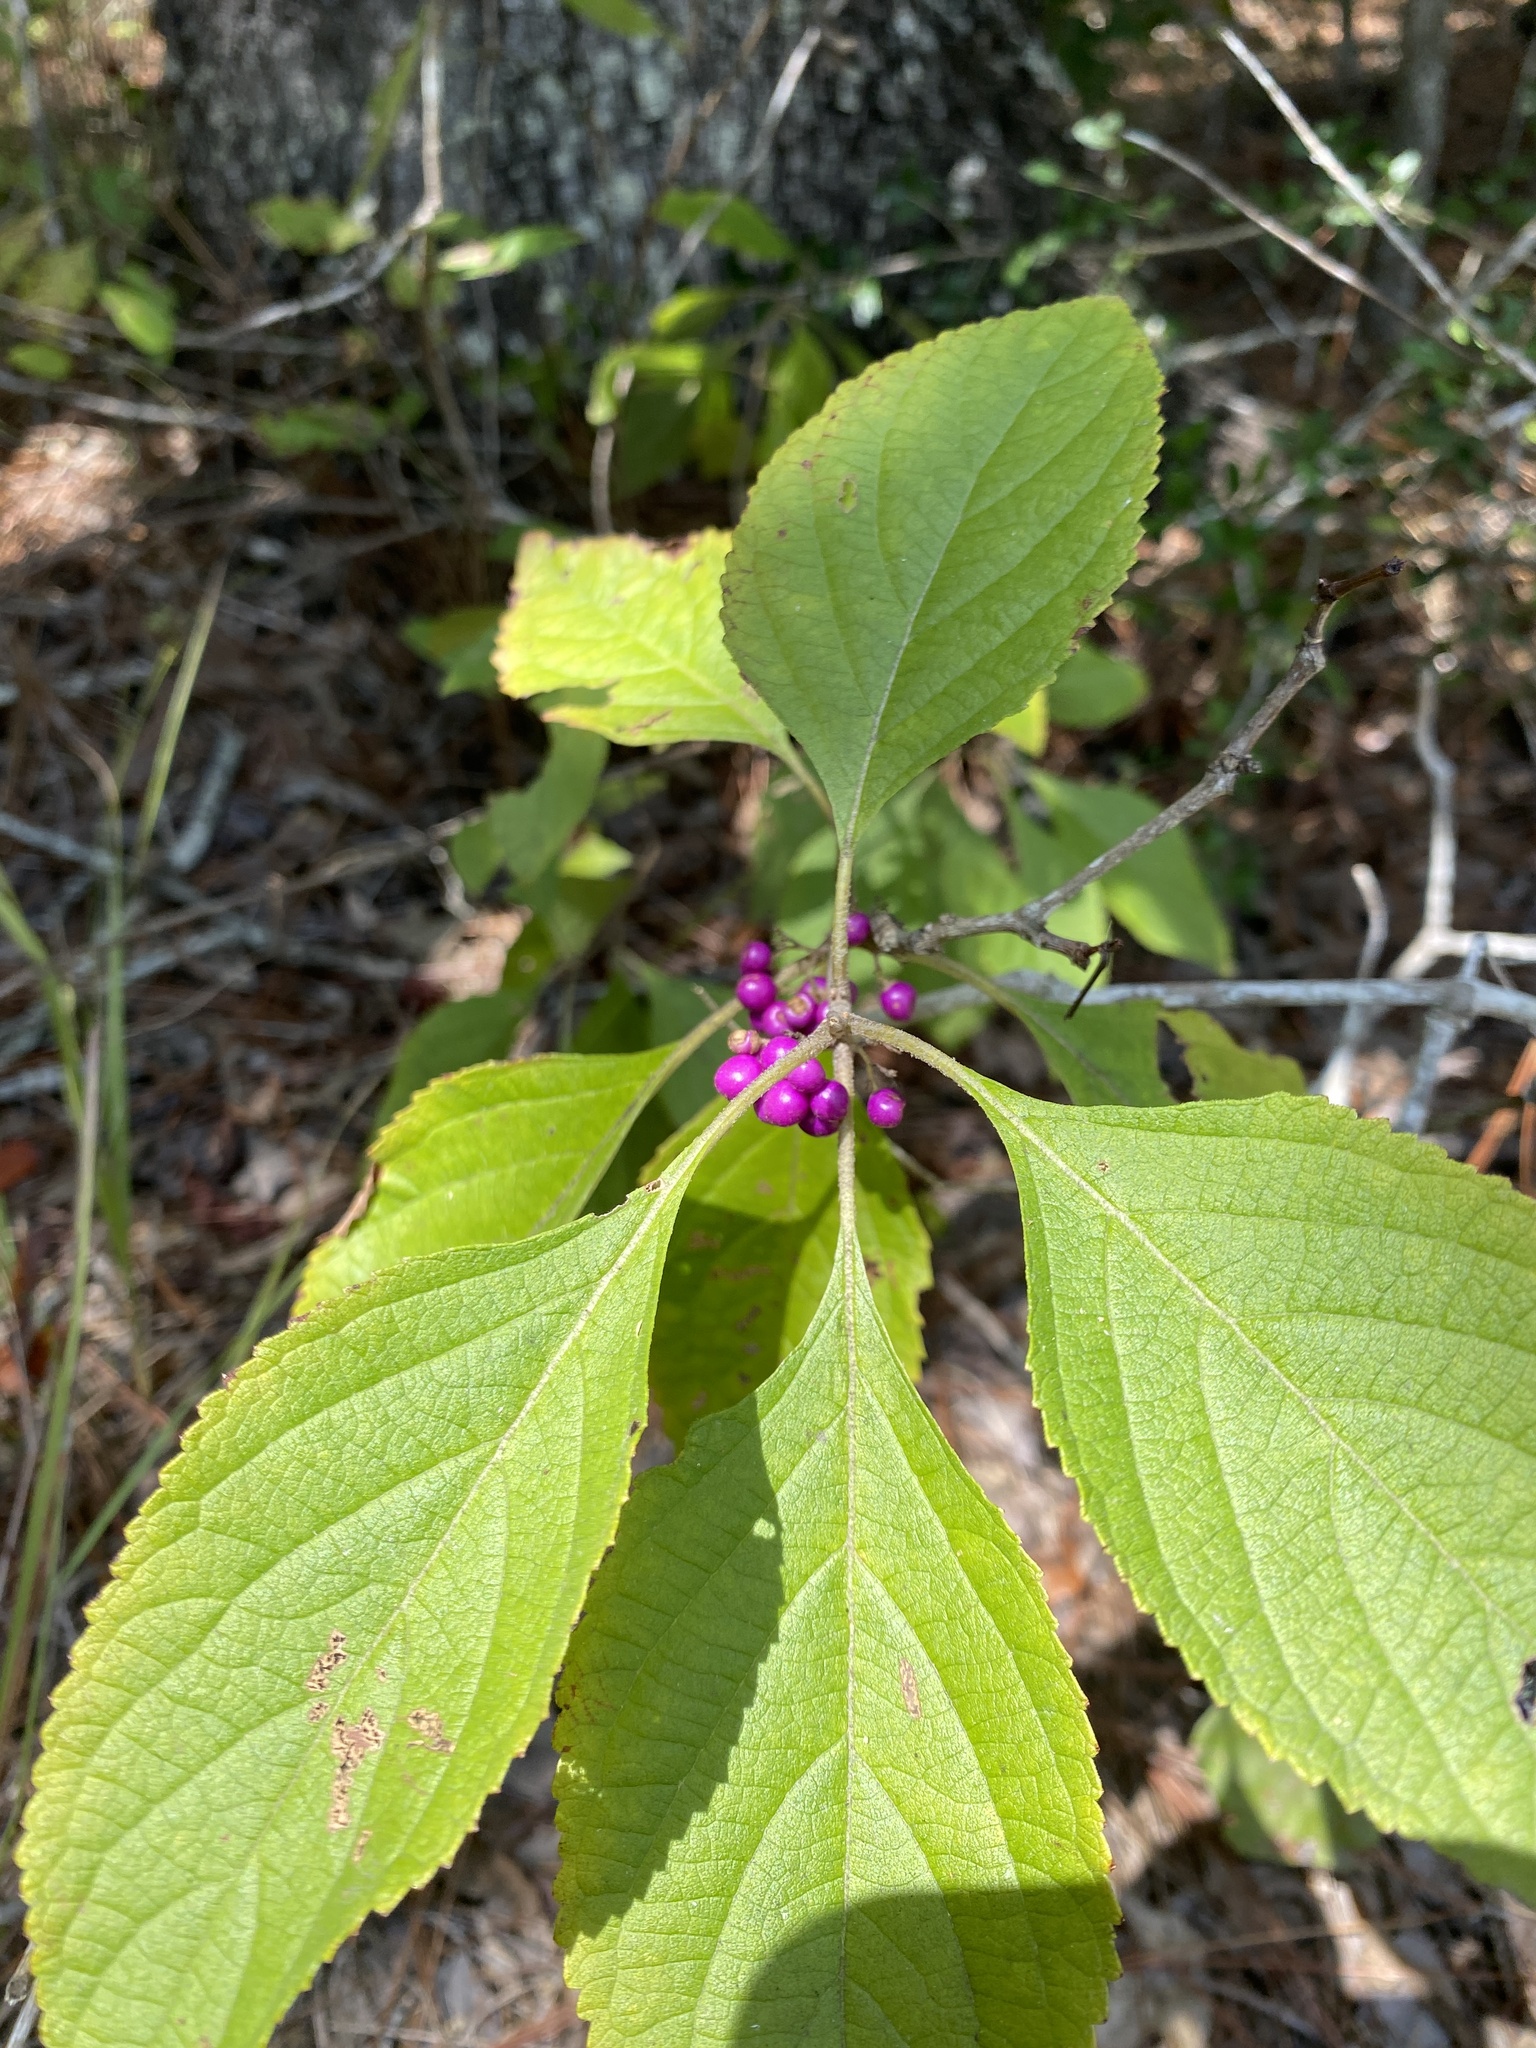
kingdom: Plantae
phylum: Tracheophyta
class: Magnoliopsida
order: Lamiales
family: Lamiaceae
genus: Callicarpa
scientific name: Callicarpa americana
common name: American beautyberry
